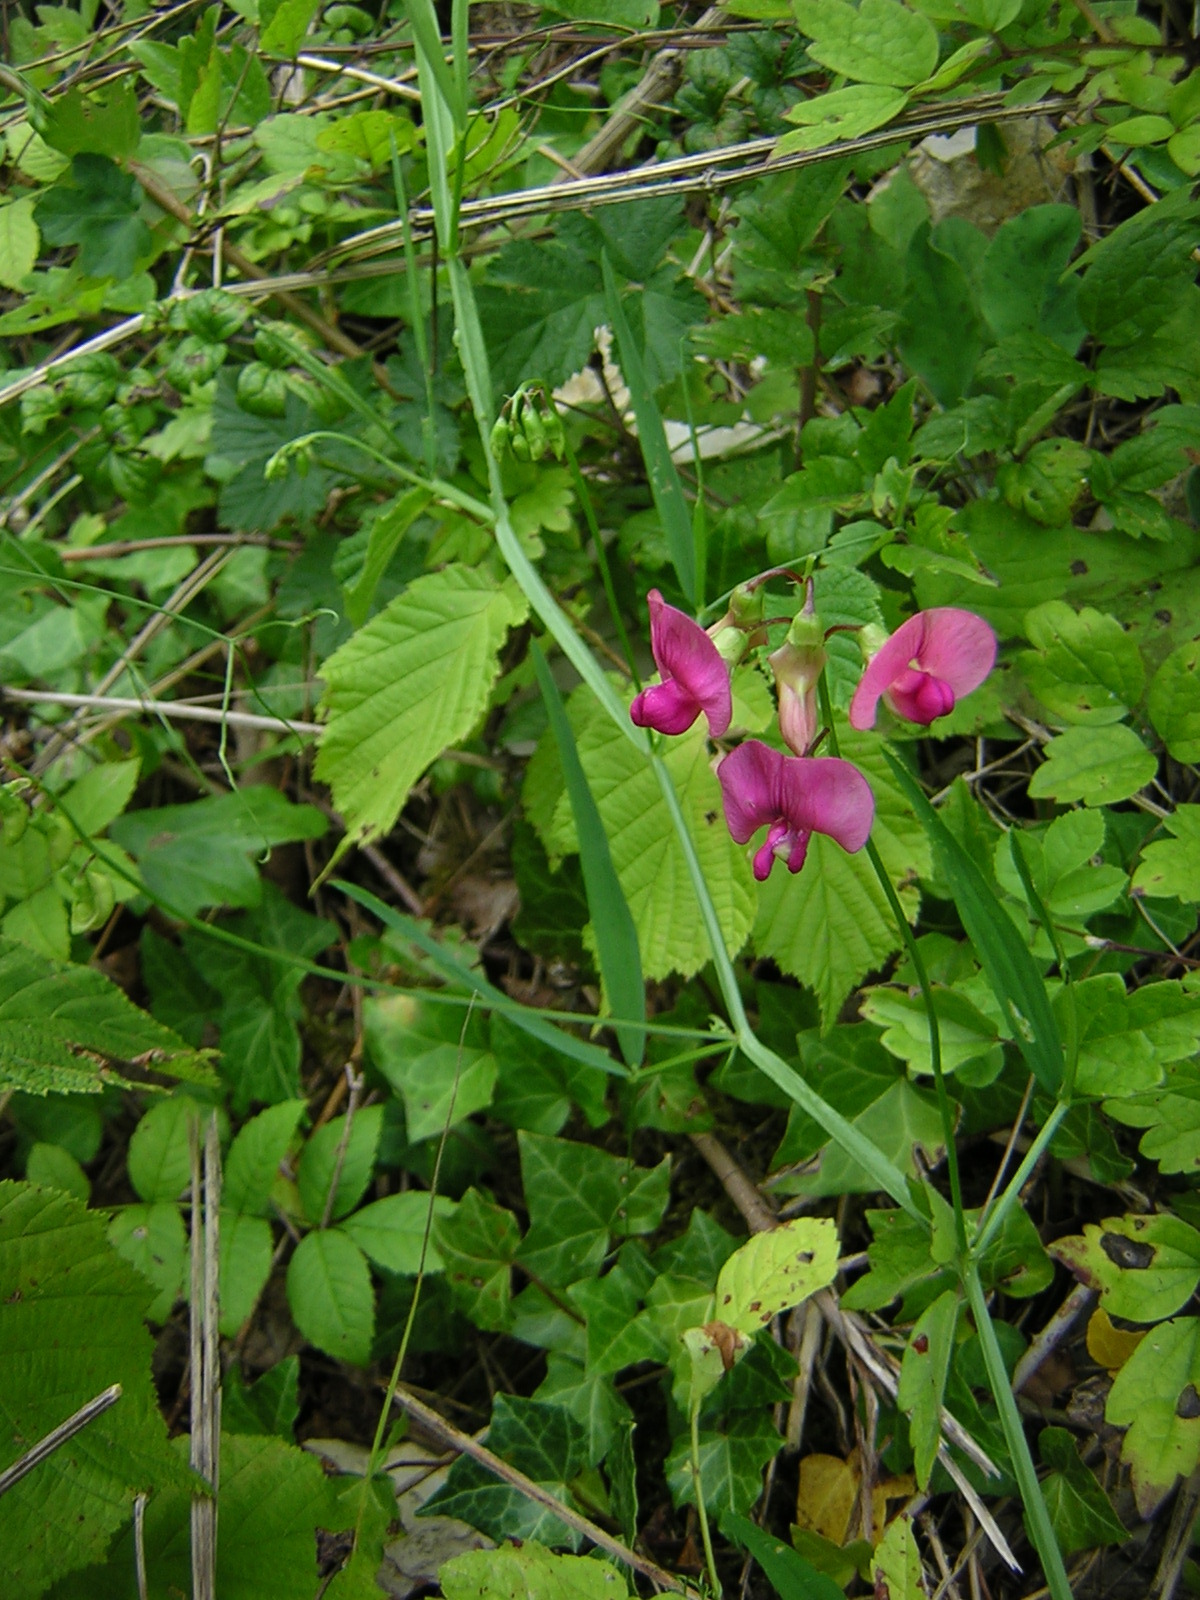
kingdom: Plantae
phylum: Tracheophyta
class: Magnoliopsida
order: Fabales
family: Fabaceae
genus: Lathyrus
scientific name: Lathyrus sylvestris
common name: Flat pea
